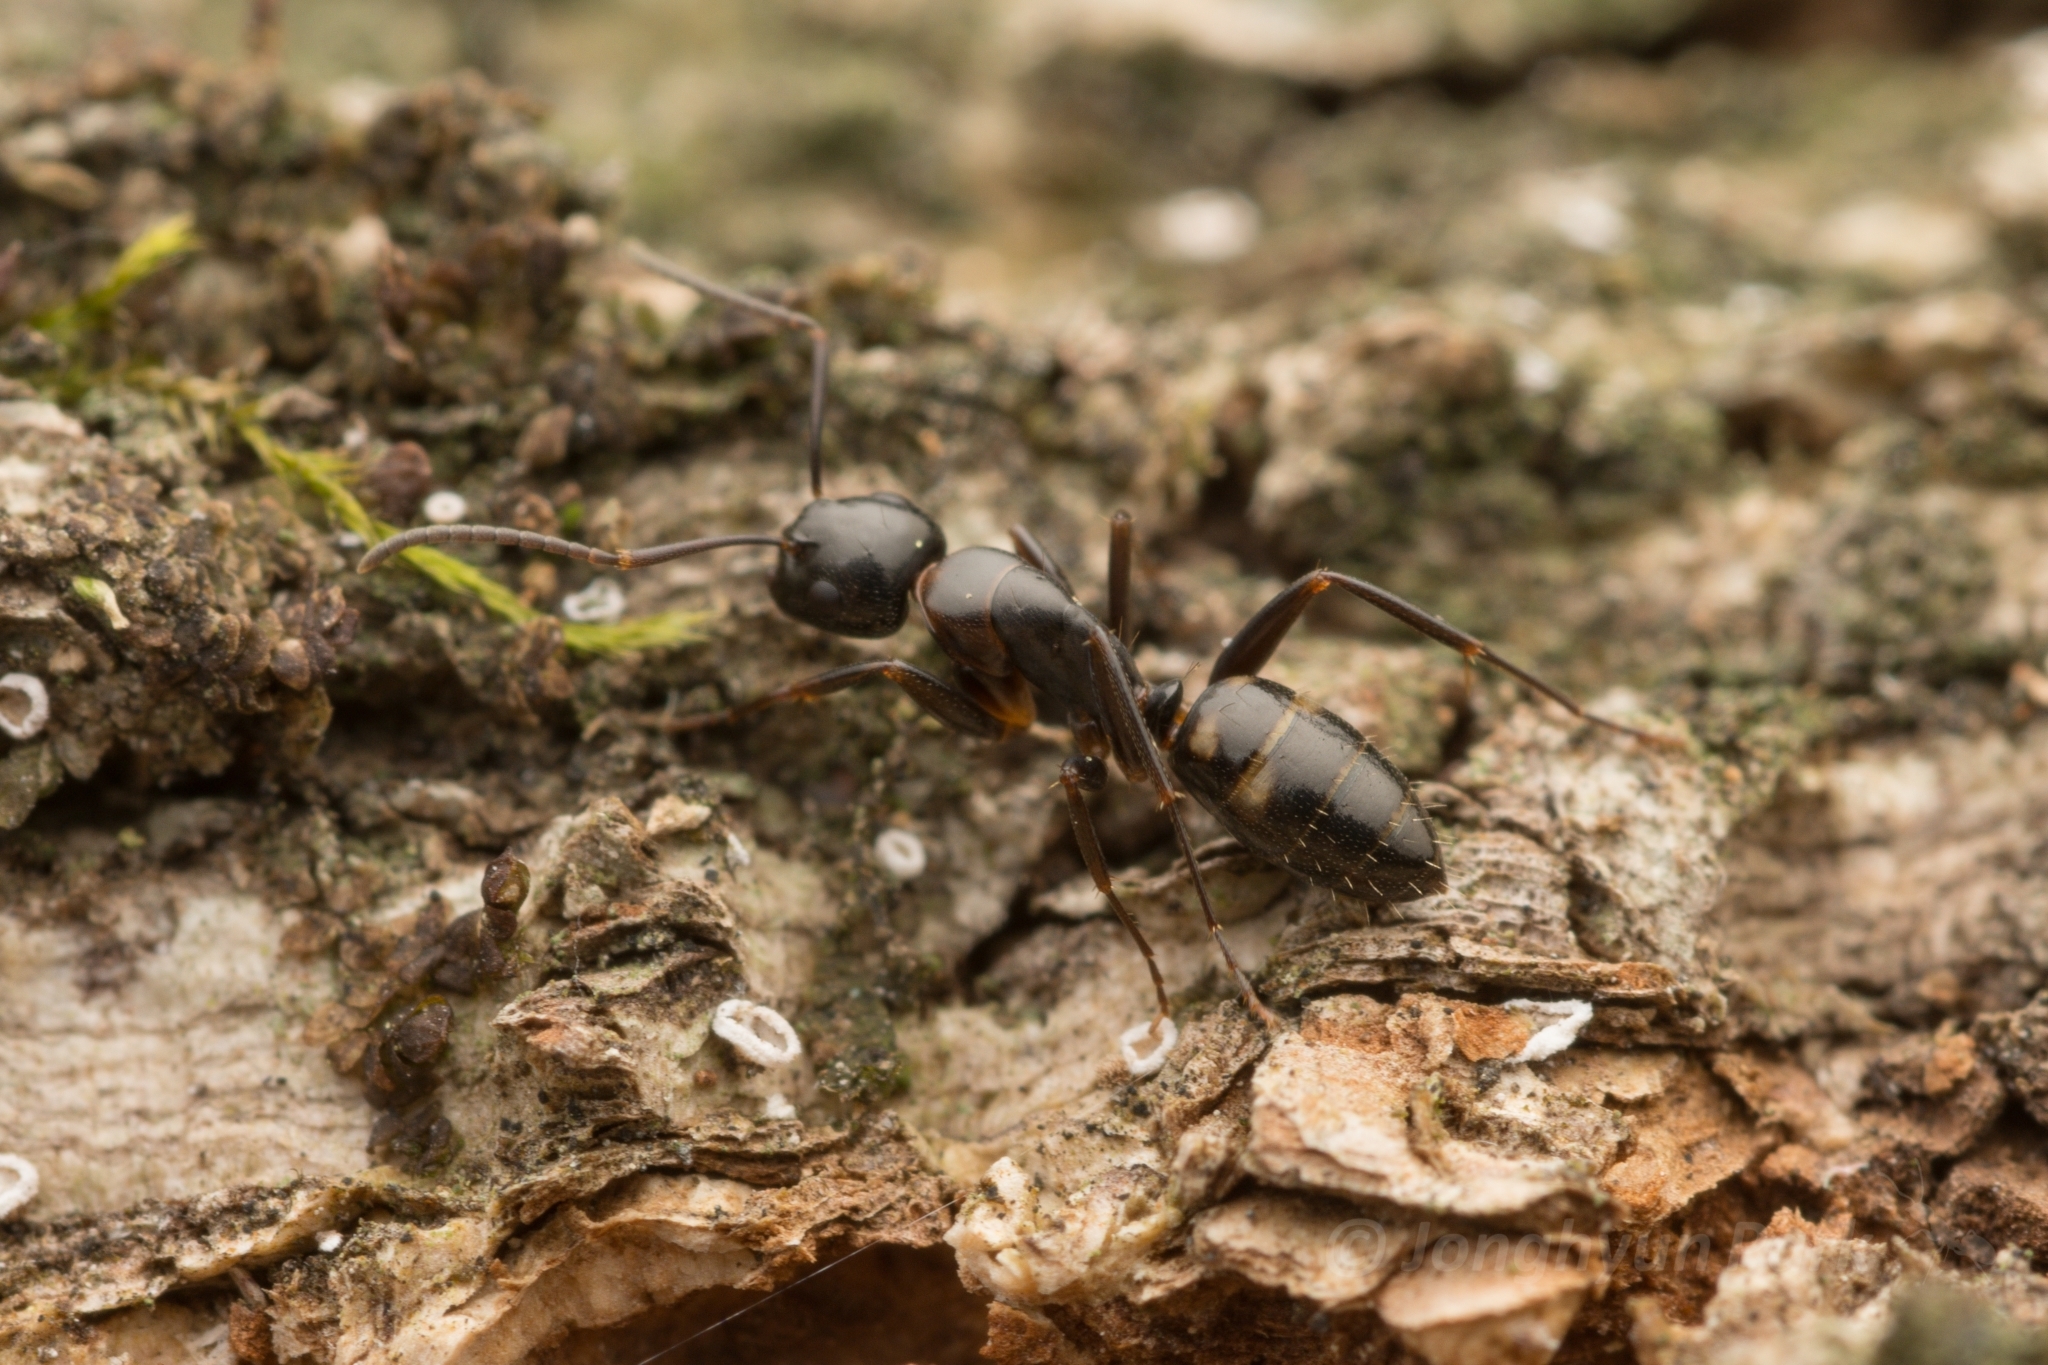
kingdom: Animalia
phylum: Arthropoda
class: Insecta
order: Hymenoptera
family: Formicidae
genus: Camponotus
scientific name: Camponotus quadrinotatus
